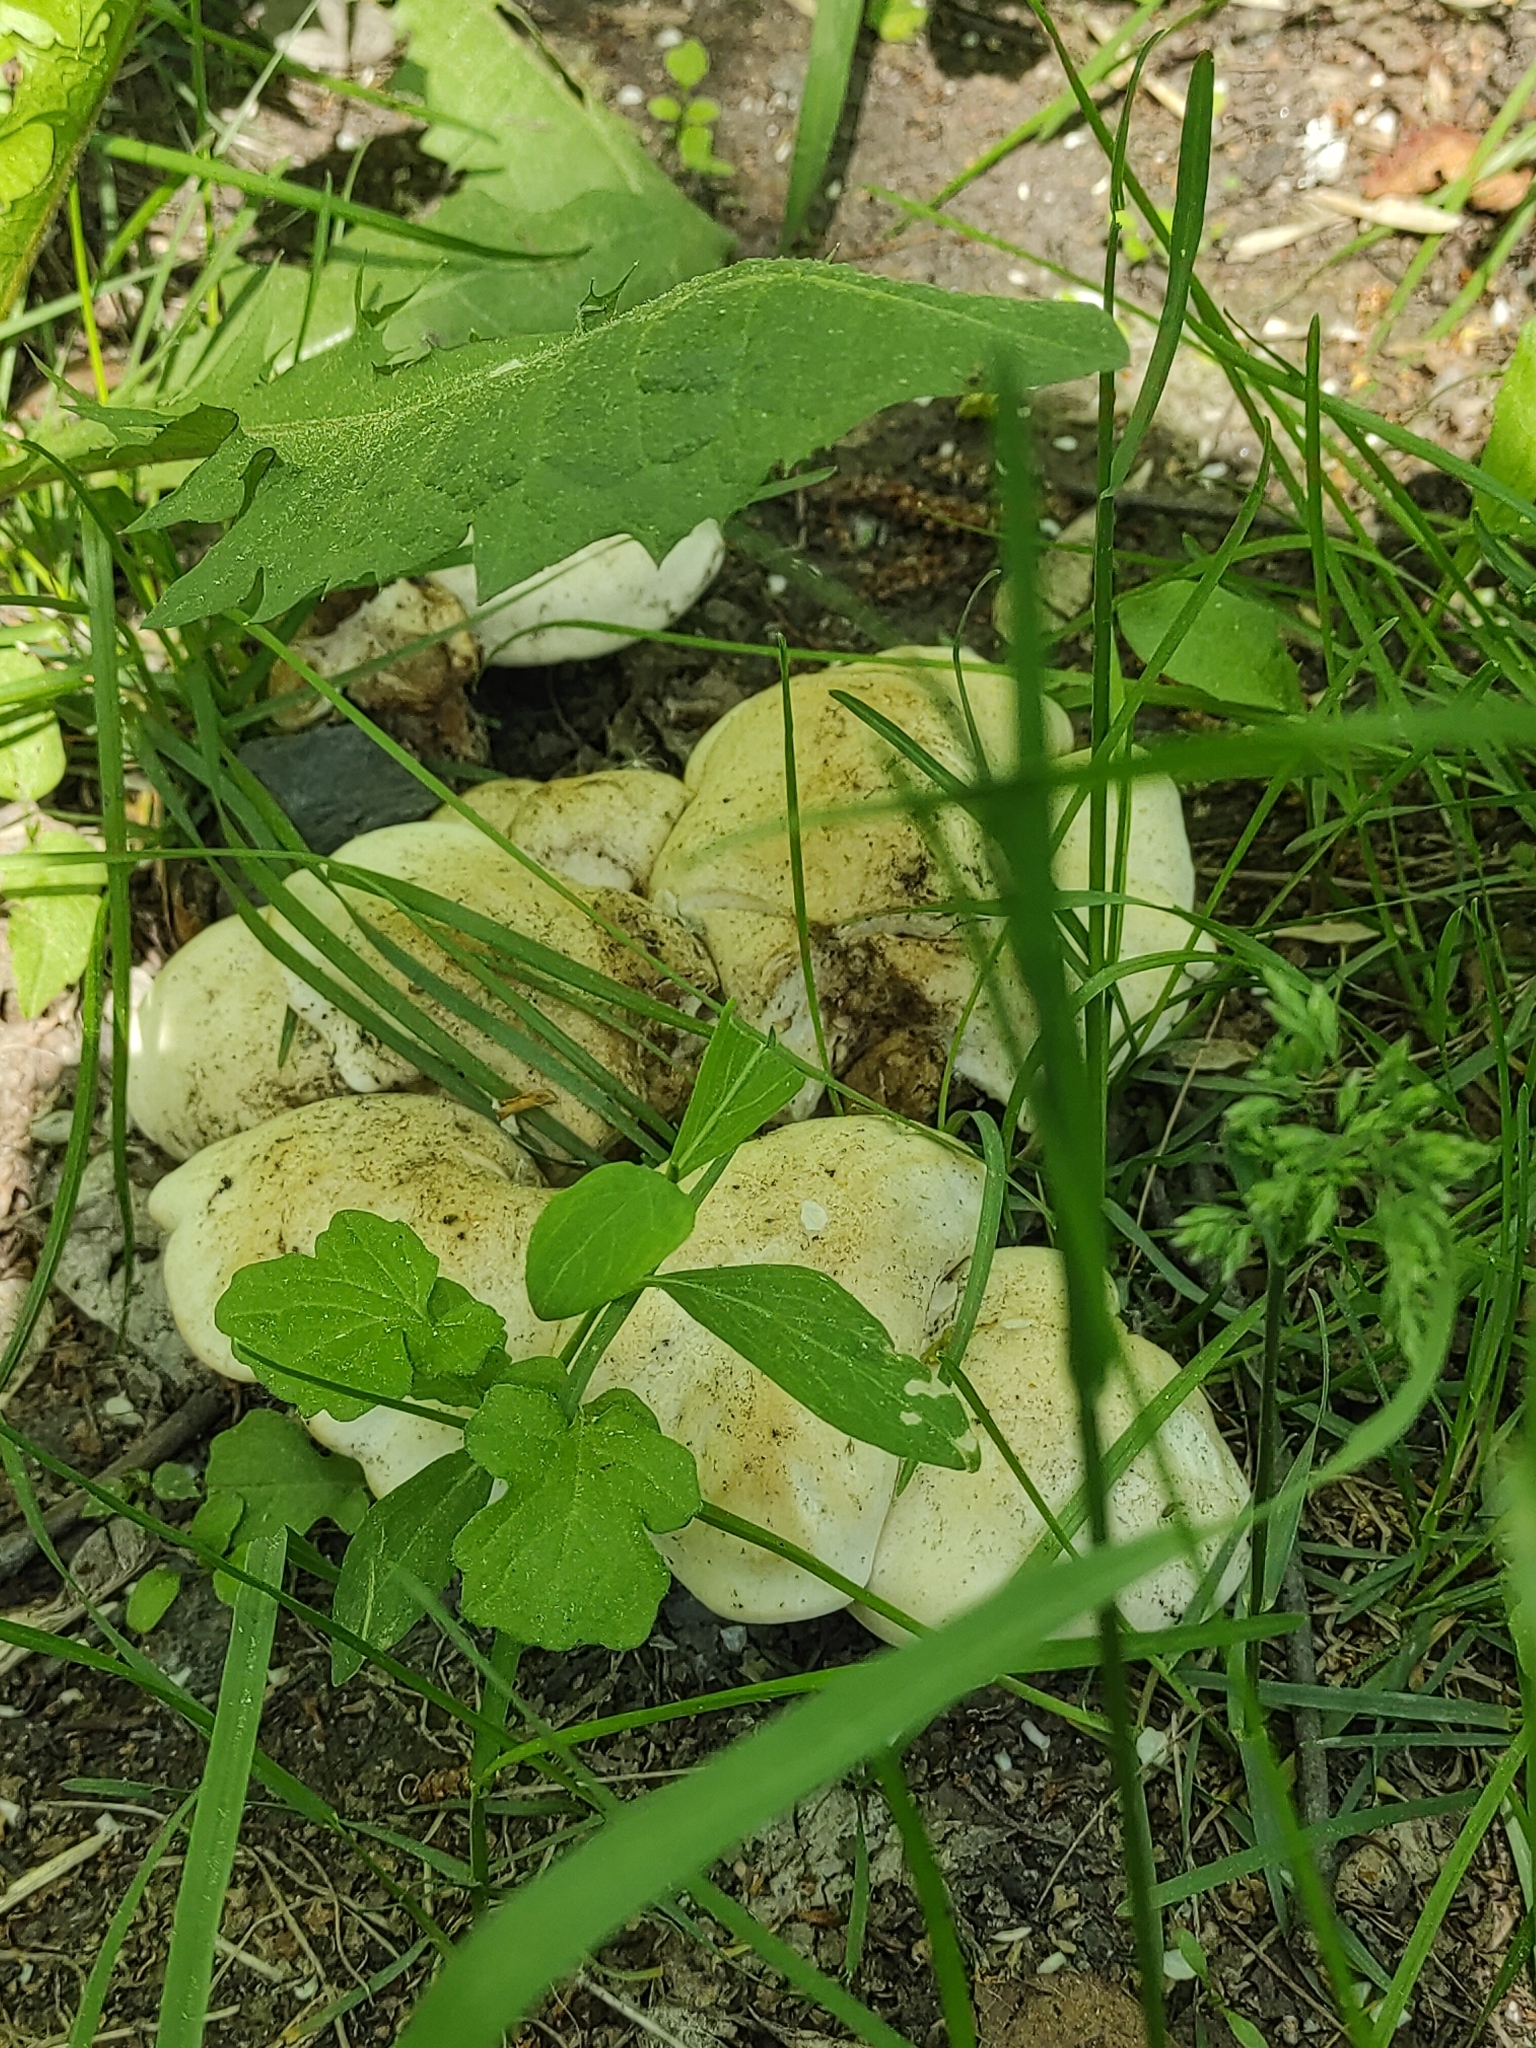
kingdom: Fungi
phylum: Basidiomycota
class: Agaricomycetes
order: Agaricales
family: Lyophyllaceae
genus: Calocybe
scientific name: Calocybe gambosa
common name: St. george's mushroom
